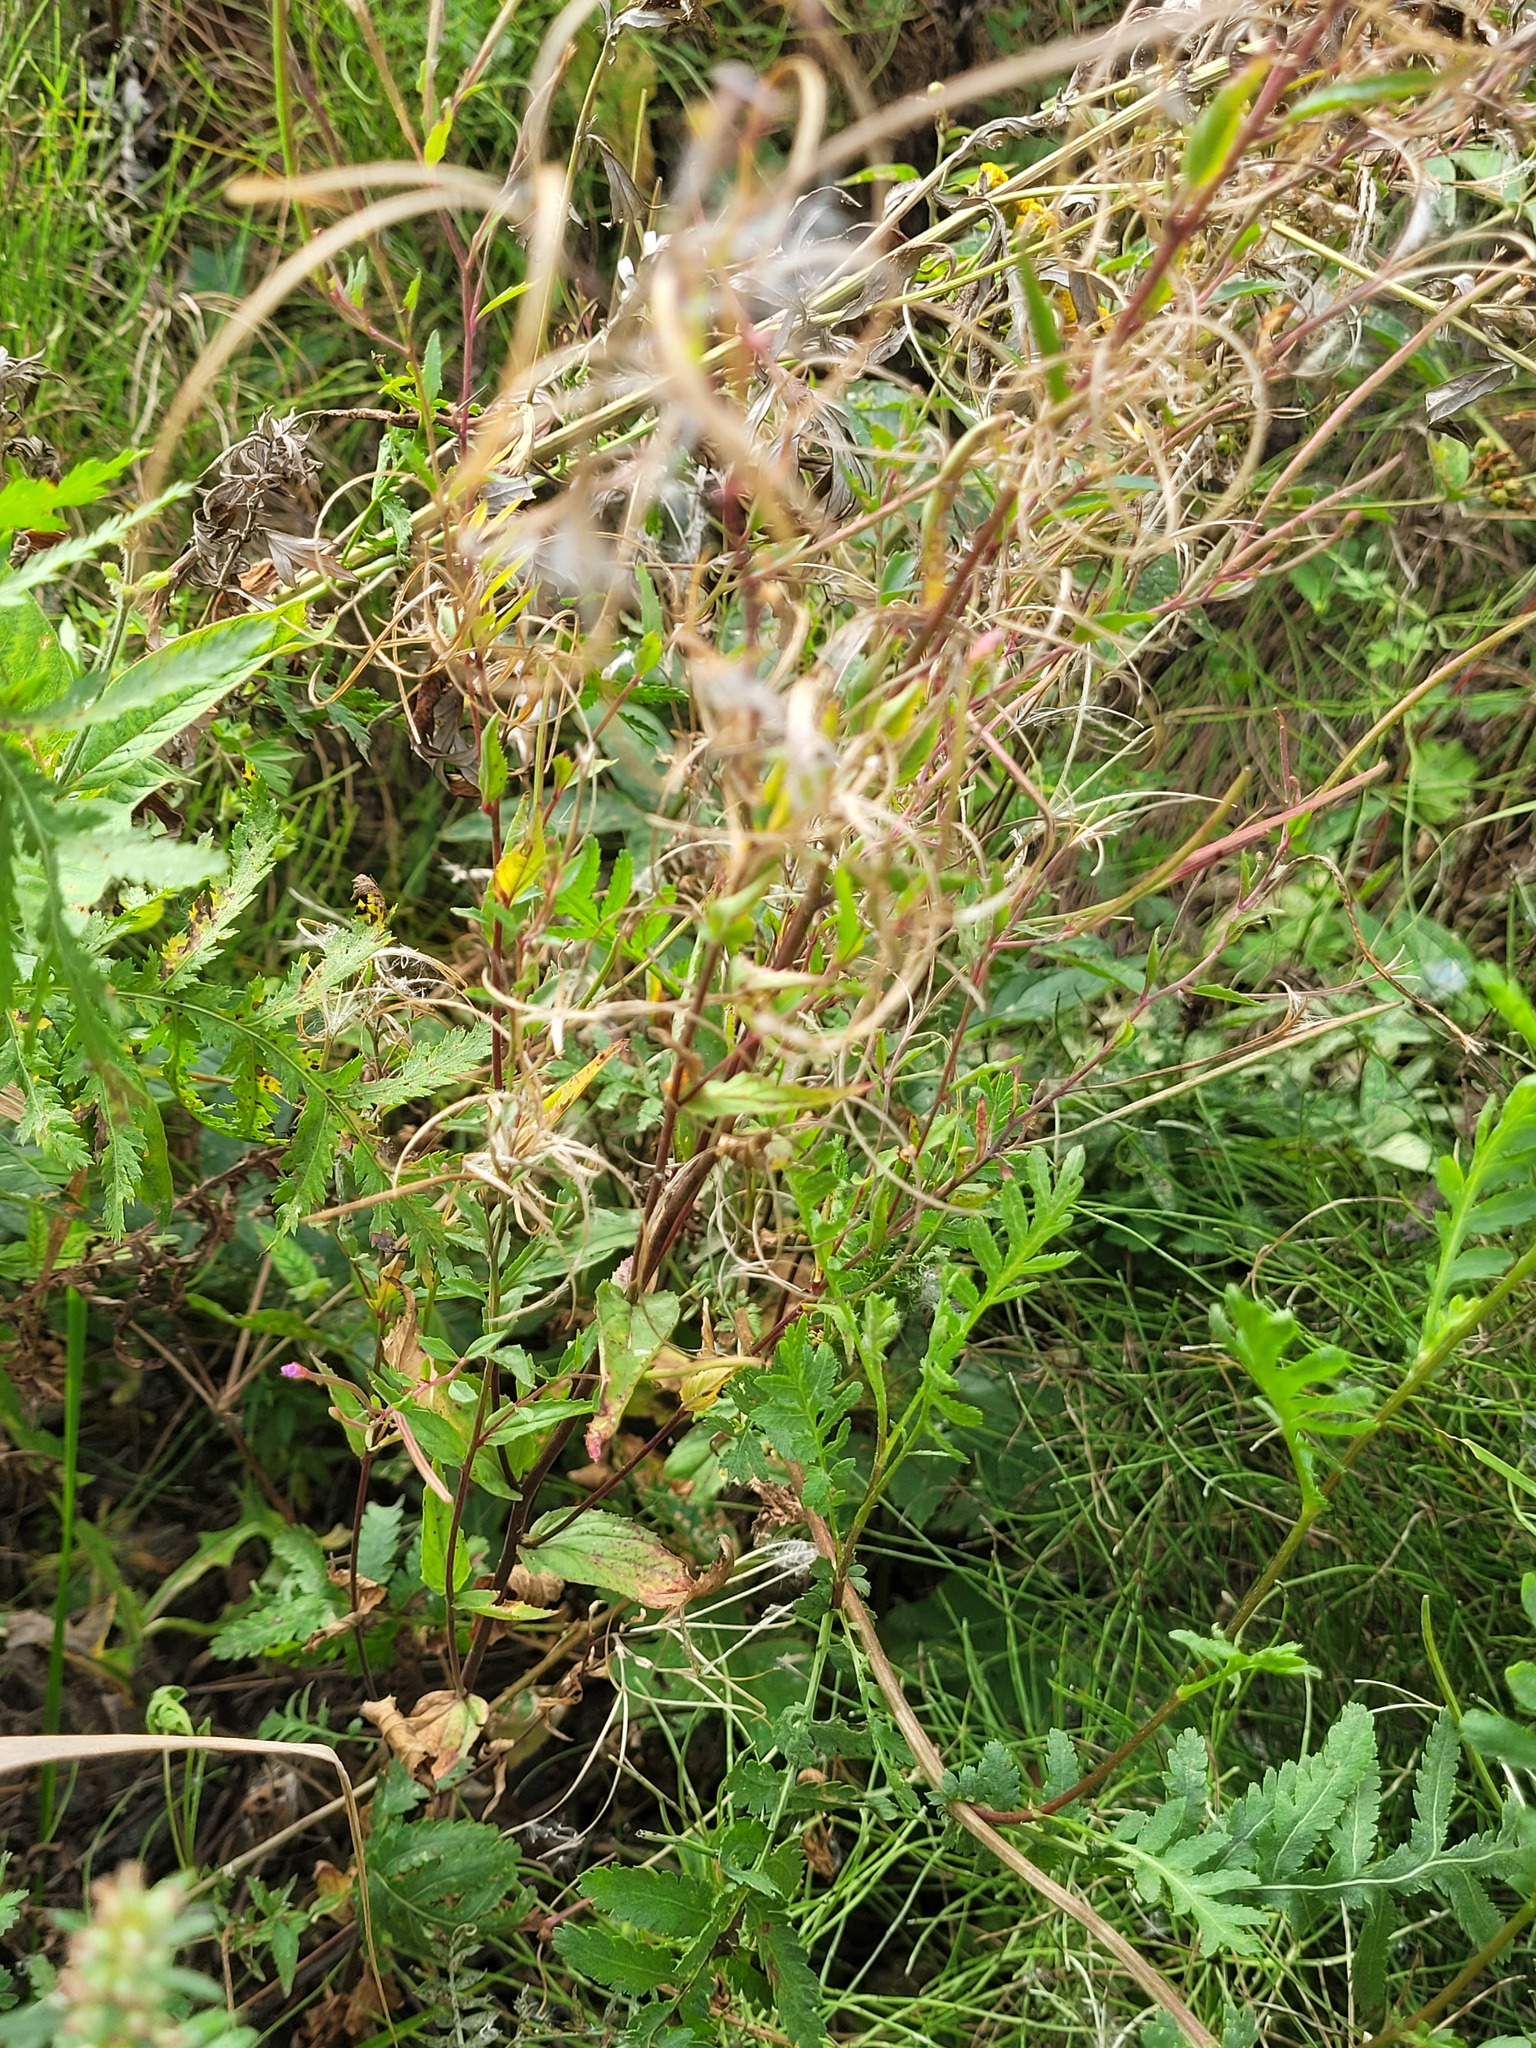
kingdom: Plantae
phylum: Tracheophyta
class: Magnoliopsida
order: Myrtales
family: Onagraceae
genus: Epilobium
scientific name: Epilobium montanum
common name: Broad-leaved willowherb
